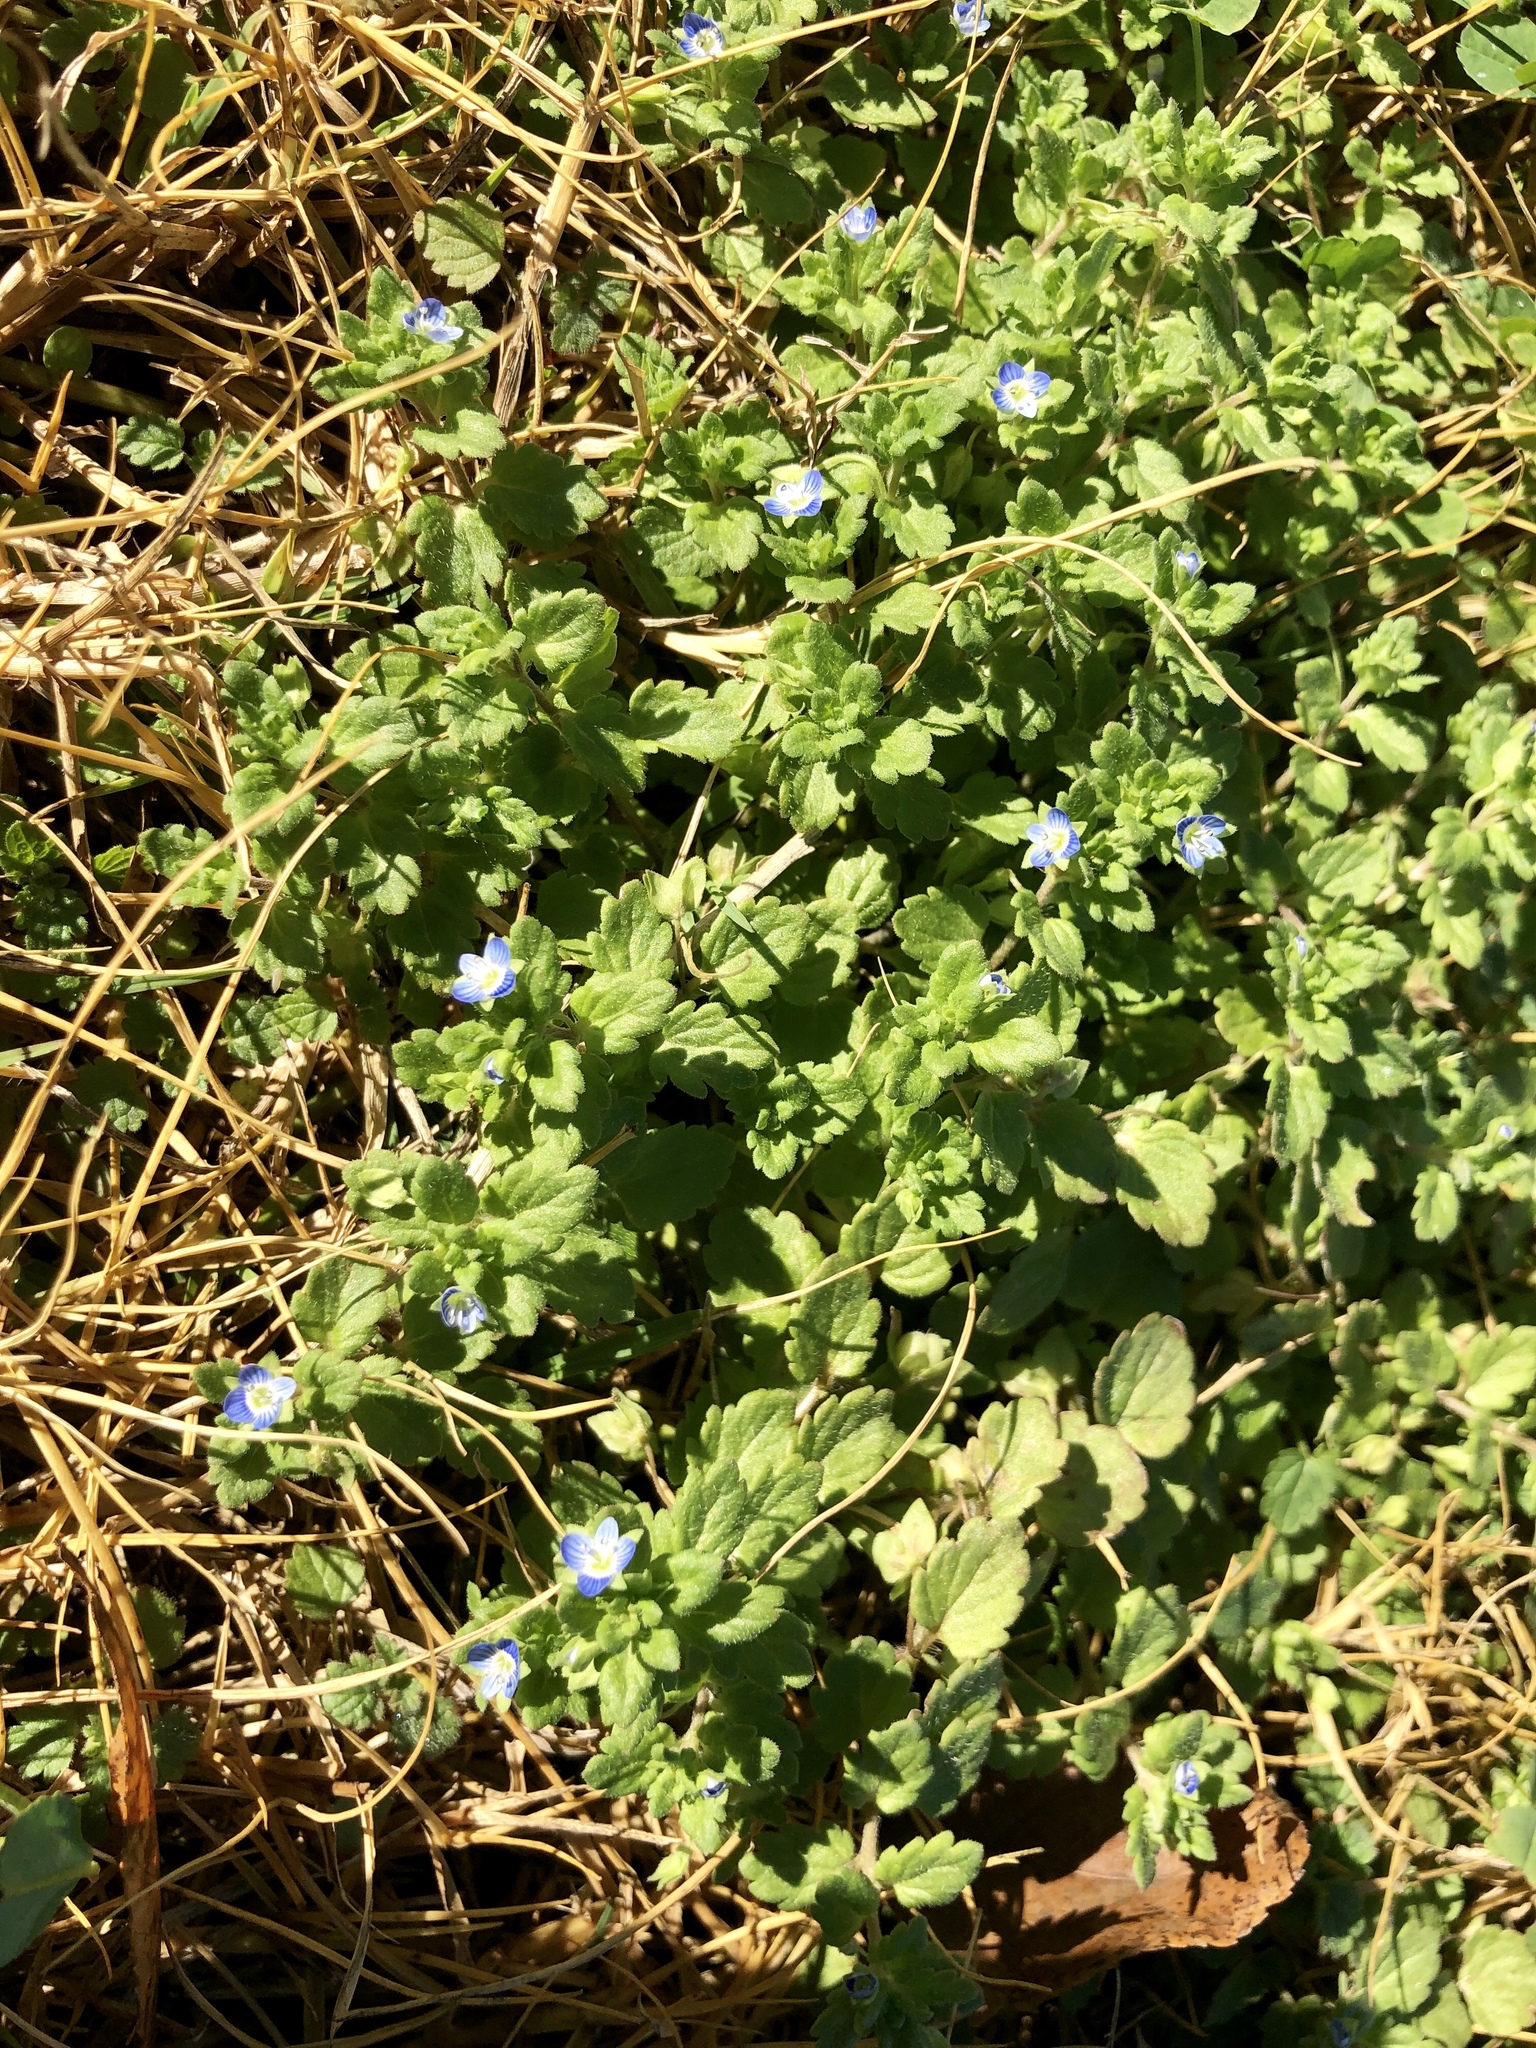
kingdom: Plantae
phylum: Tracheophyta
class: Magnoliopsida
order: Lamiales
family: Plantaginaceae
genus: Veronica
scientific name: Veronica polita
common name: Grey field-speedwell
